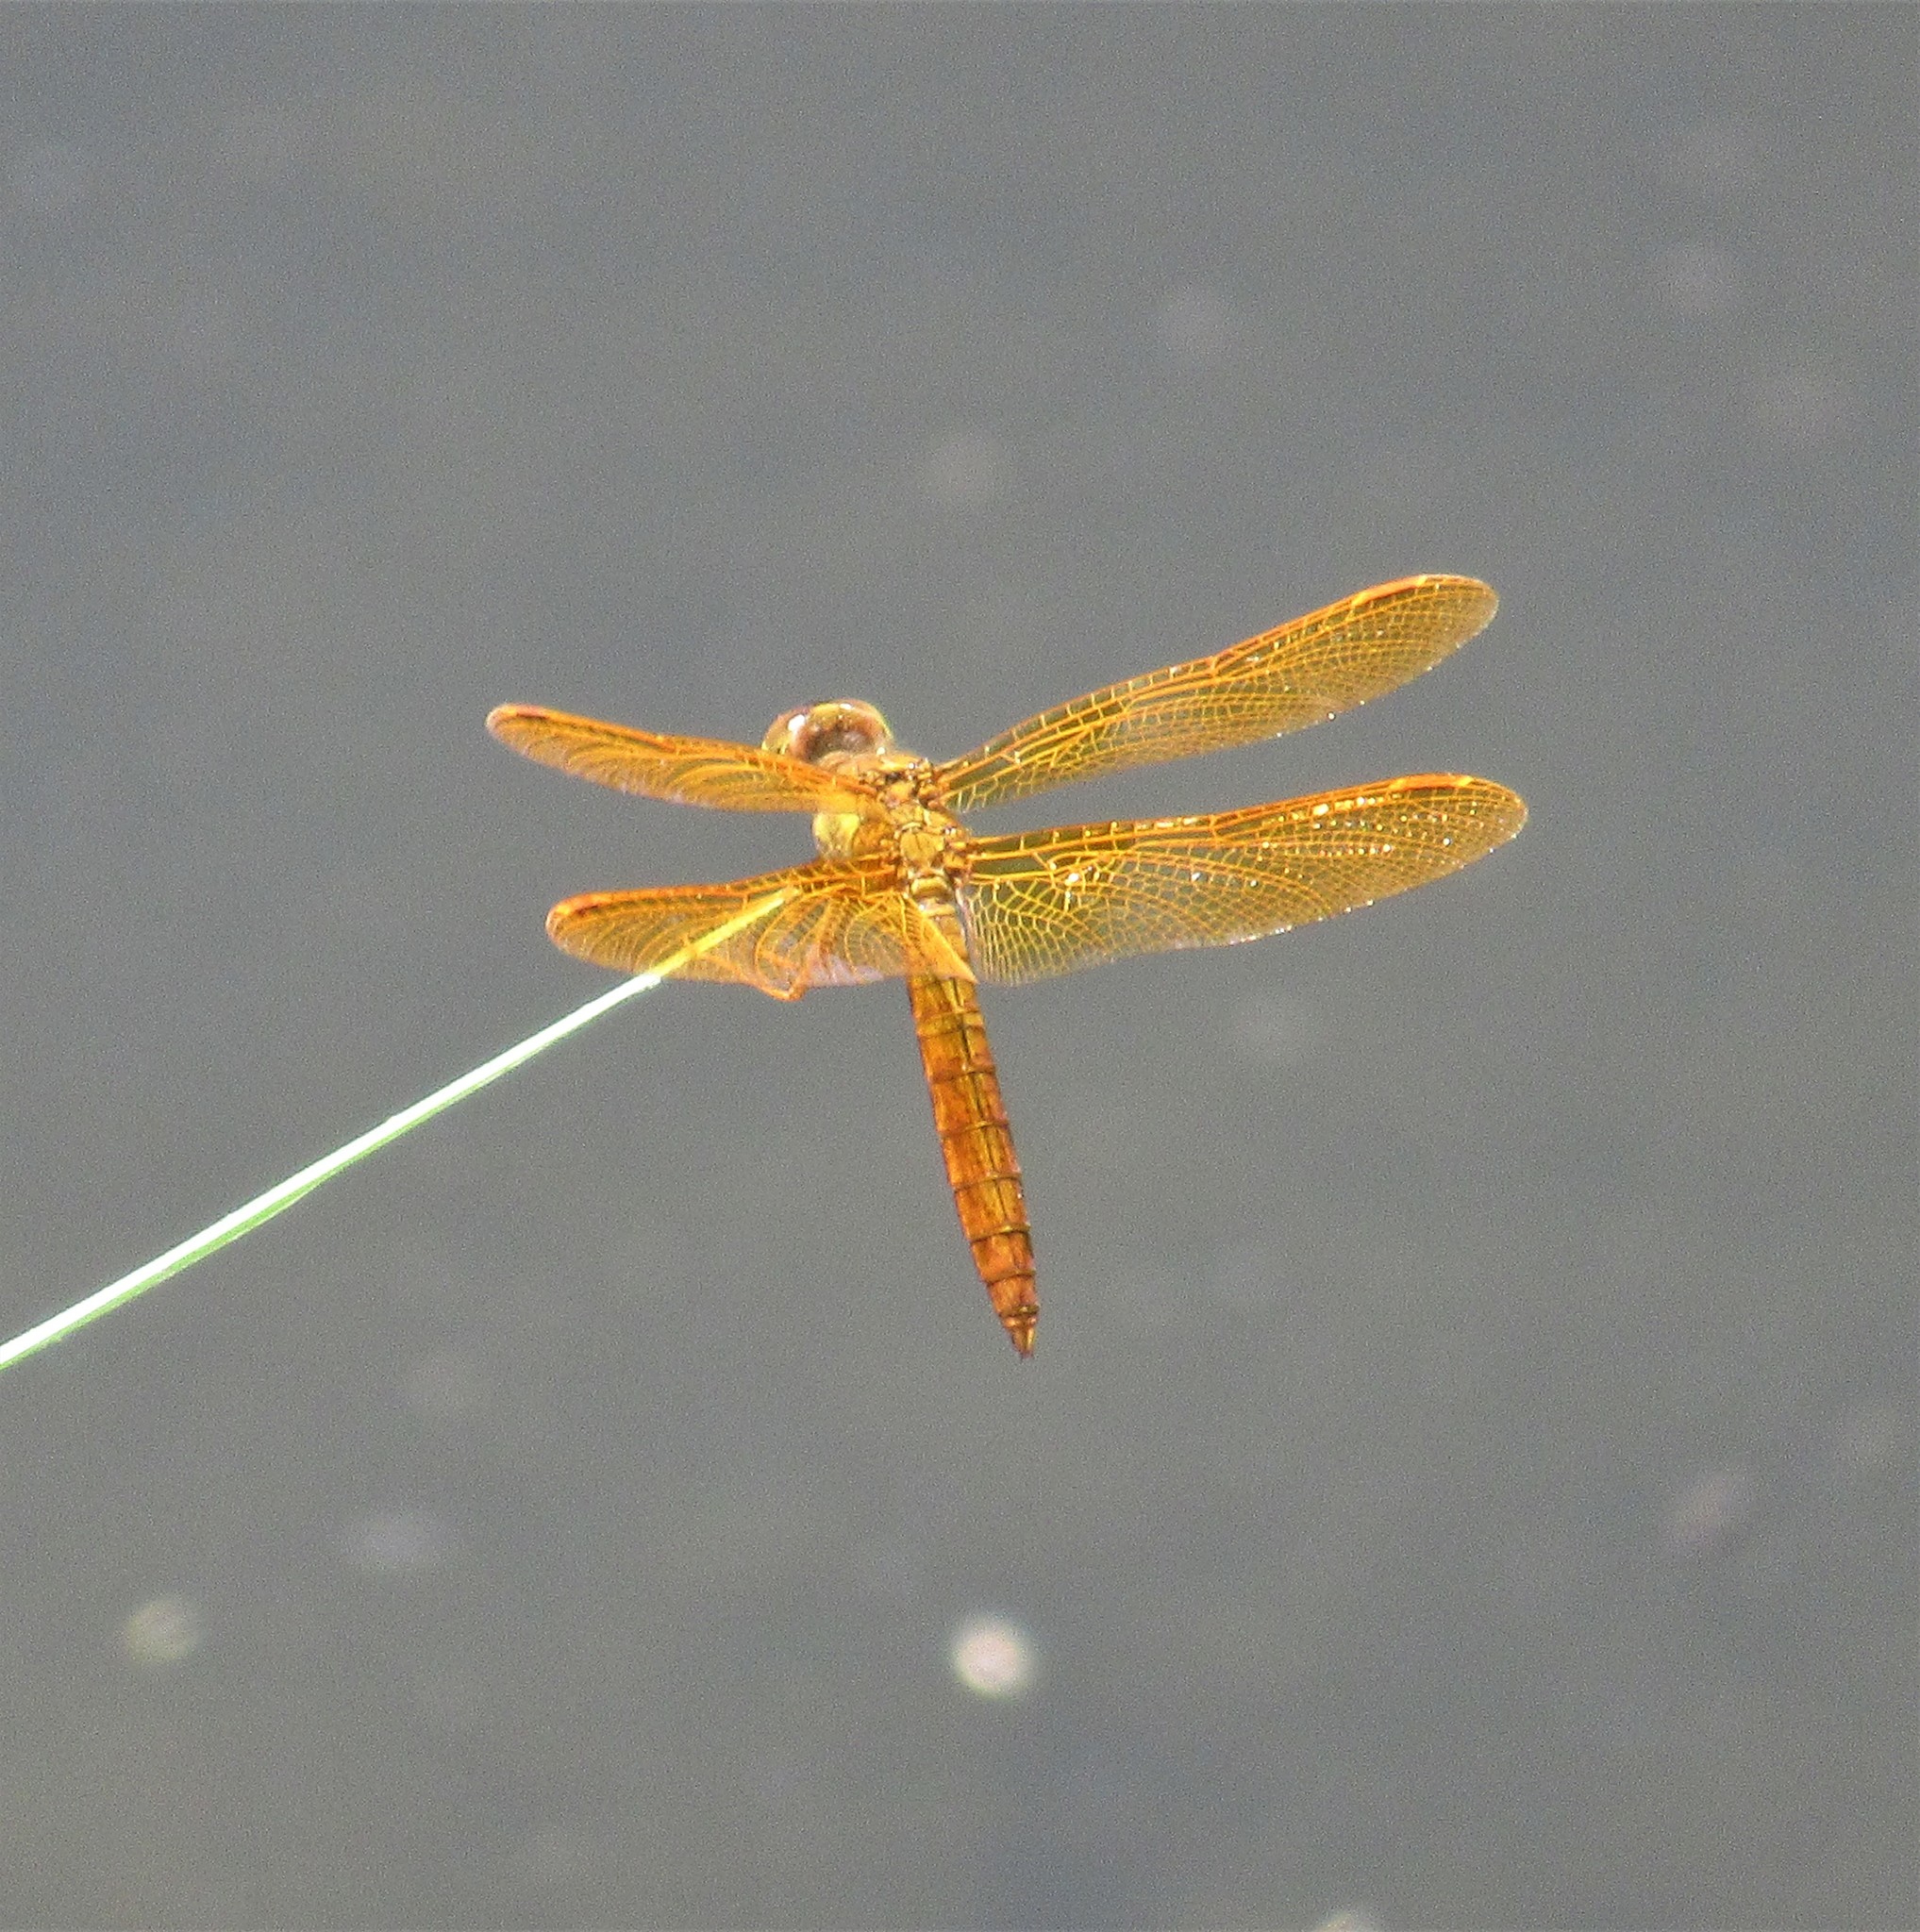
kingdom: Animalia
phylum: Arthropoda
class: Insecta
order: Odonata
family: Libellulidae
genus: Perithemis
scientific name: Perithemis intensa
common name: Mexican amberwing
